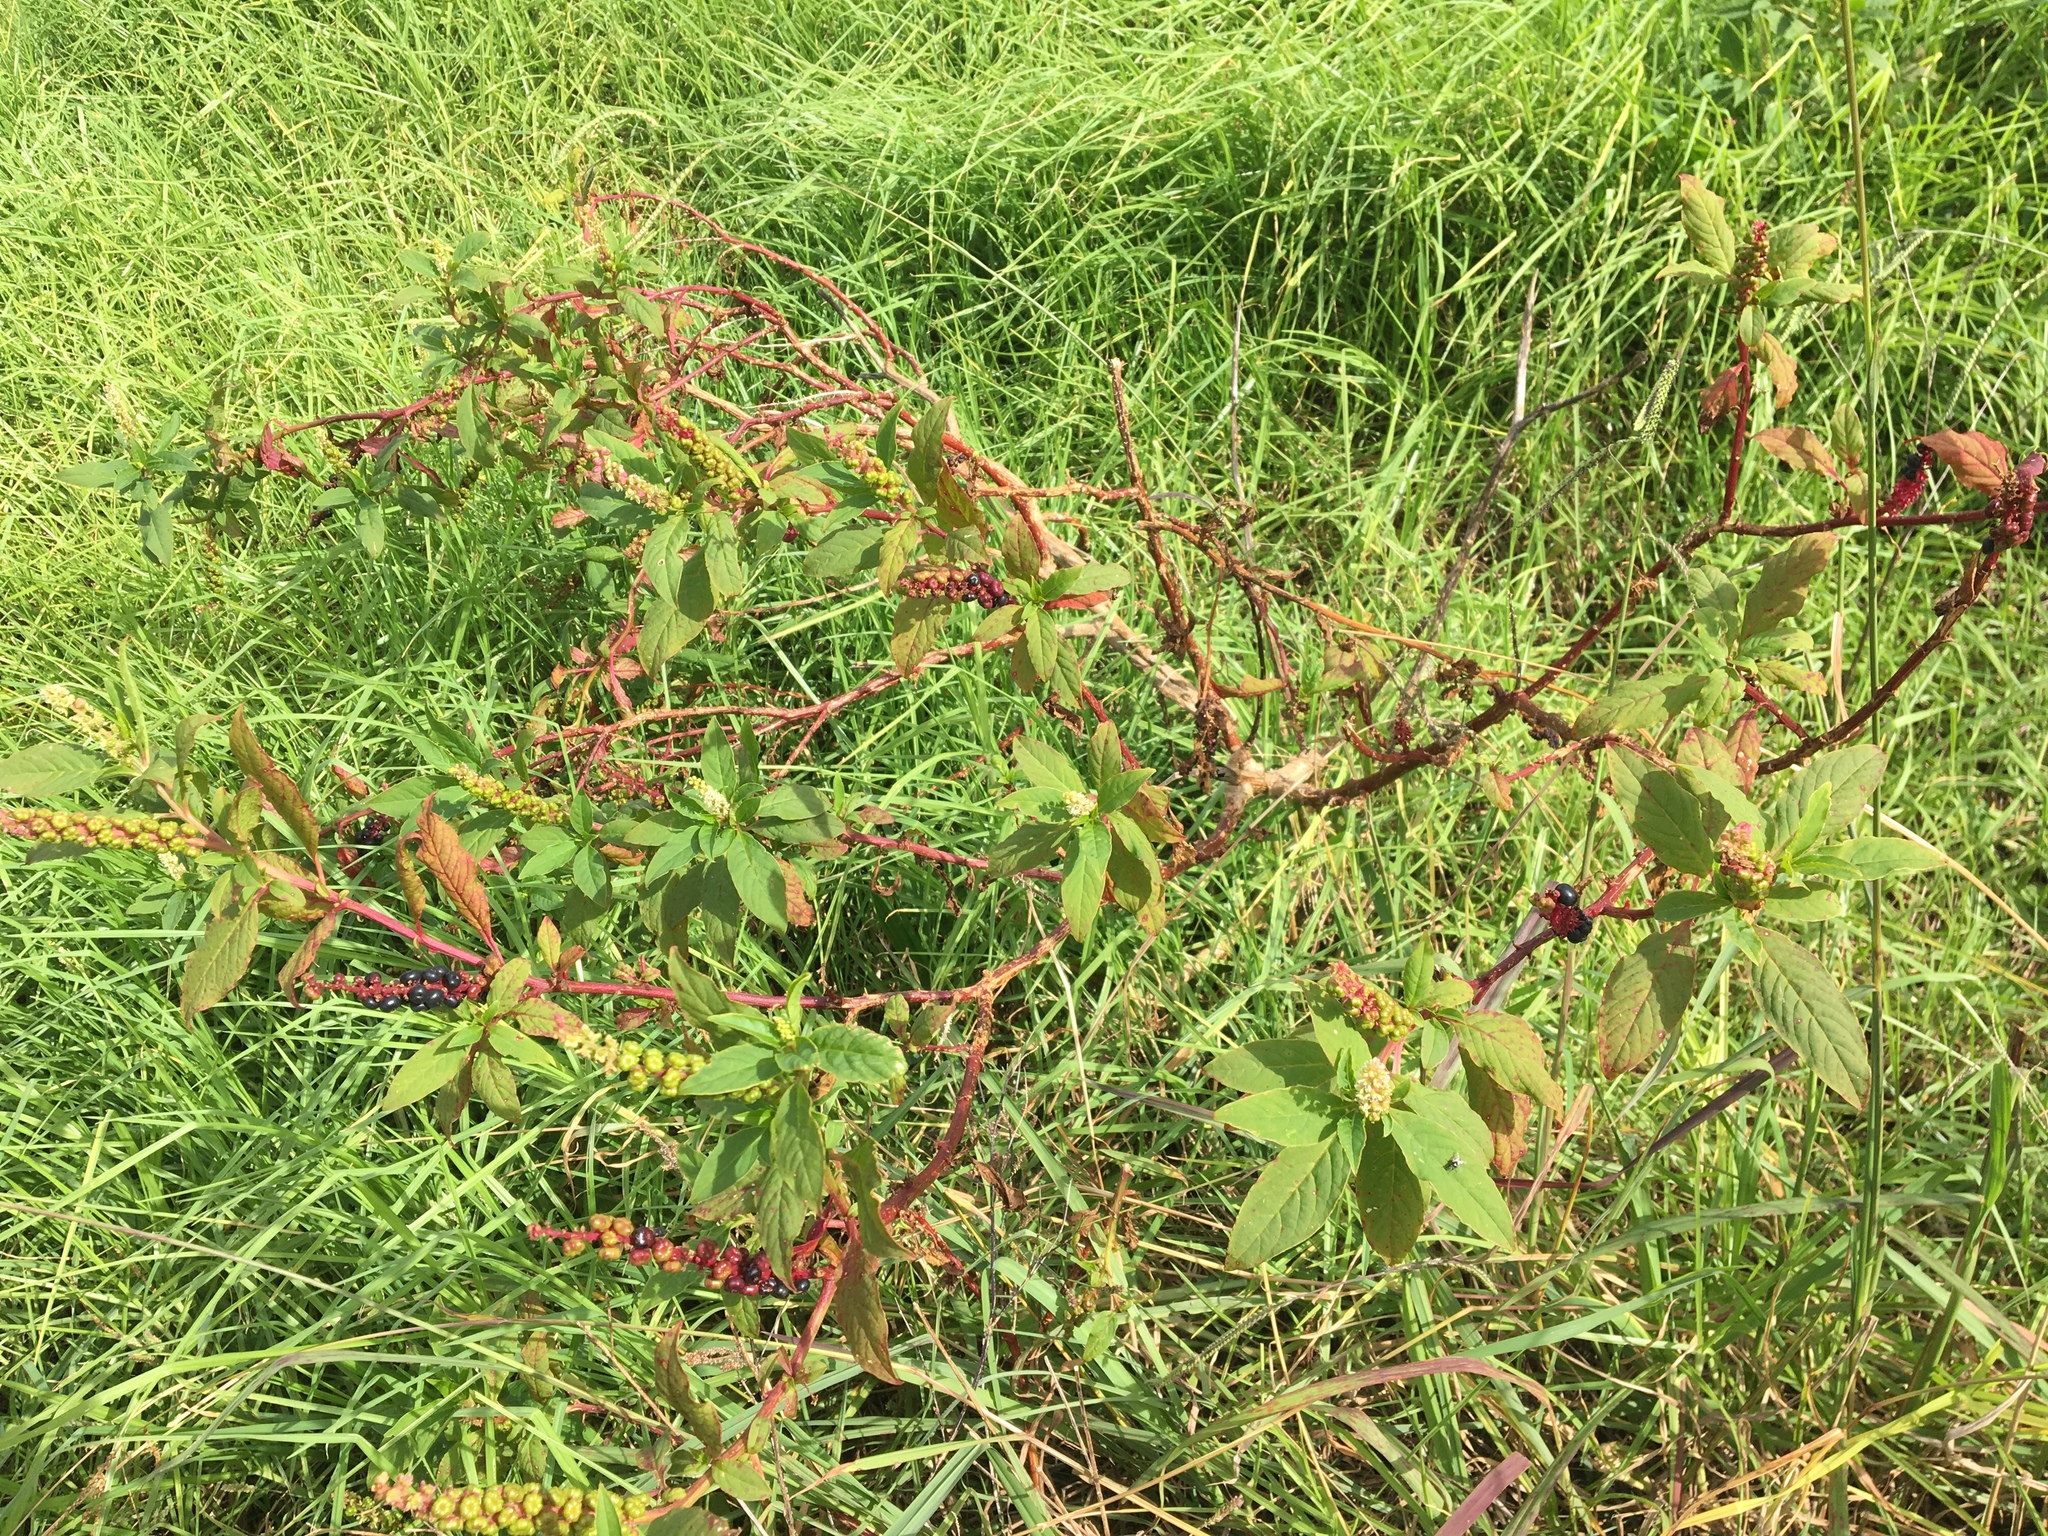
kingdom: Plantae
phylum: Tracheophyta
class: Magnoliopsida
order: Caryophyllales
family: Phytolaccaceae
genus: Phytolacca
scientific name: Phytolacca icosandra
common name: Button pokeweed
